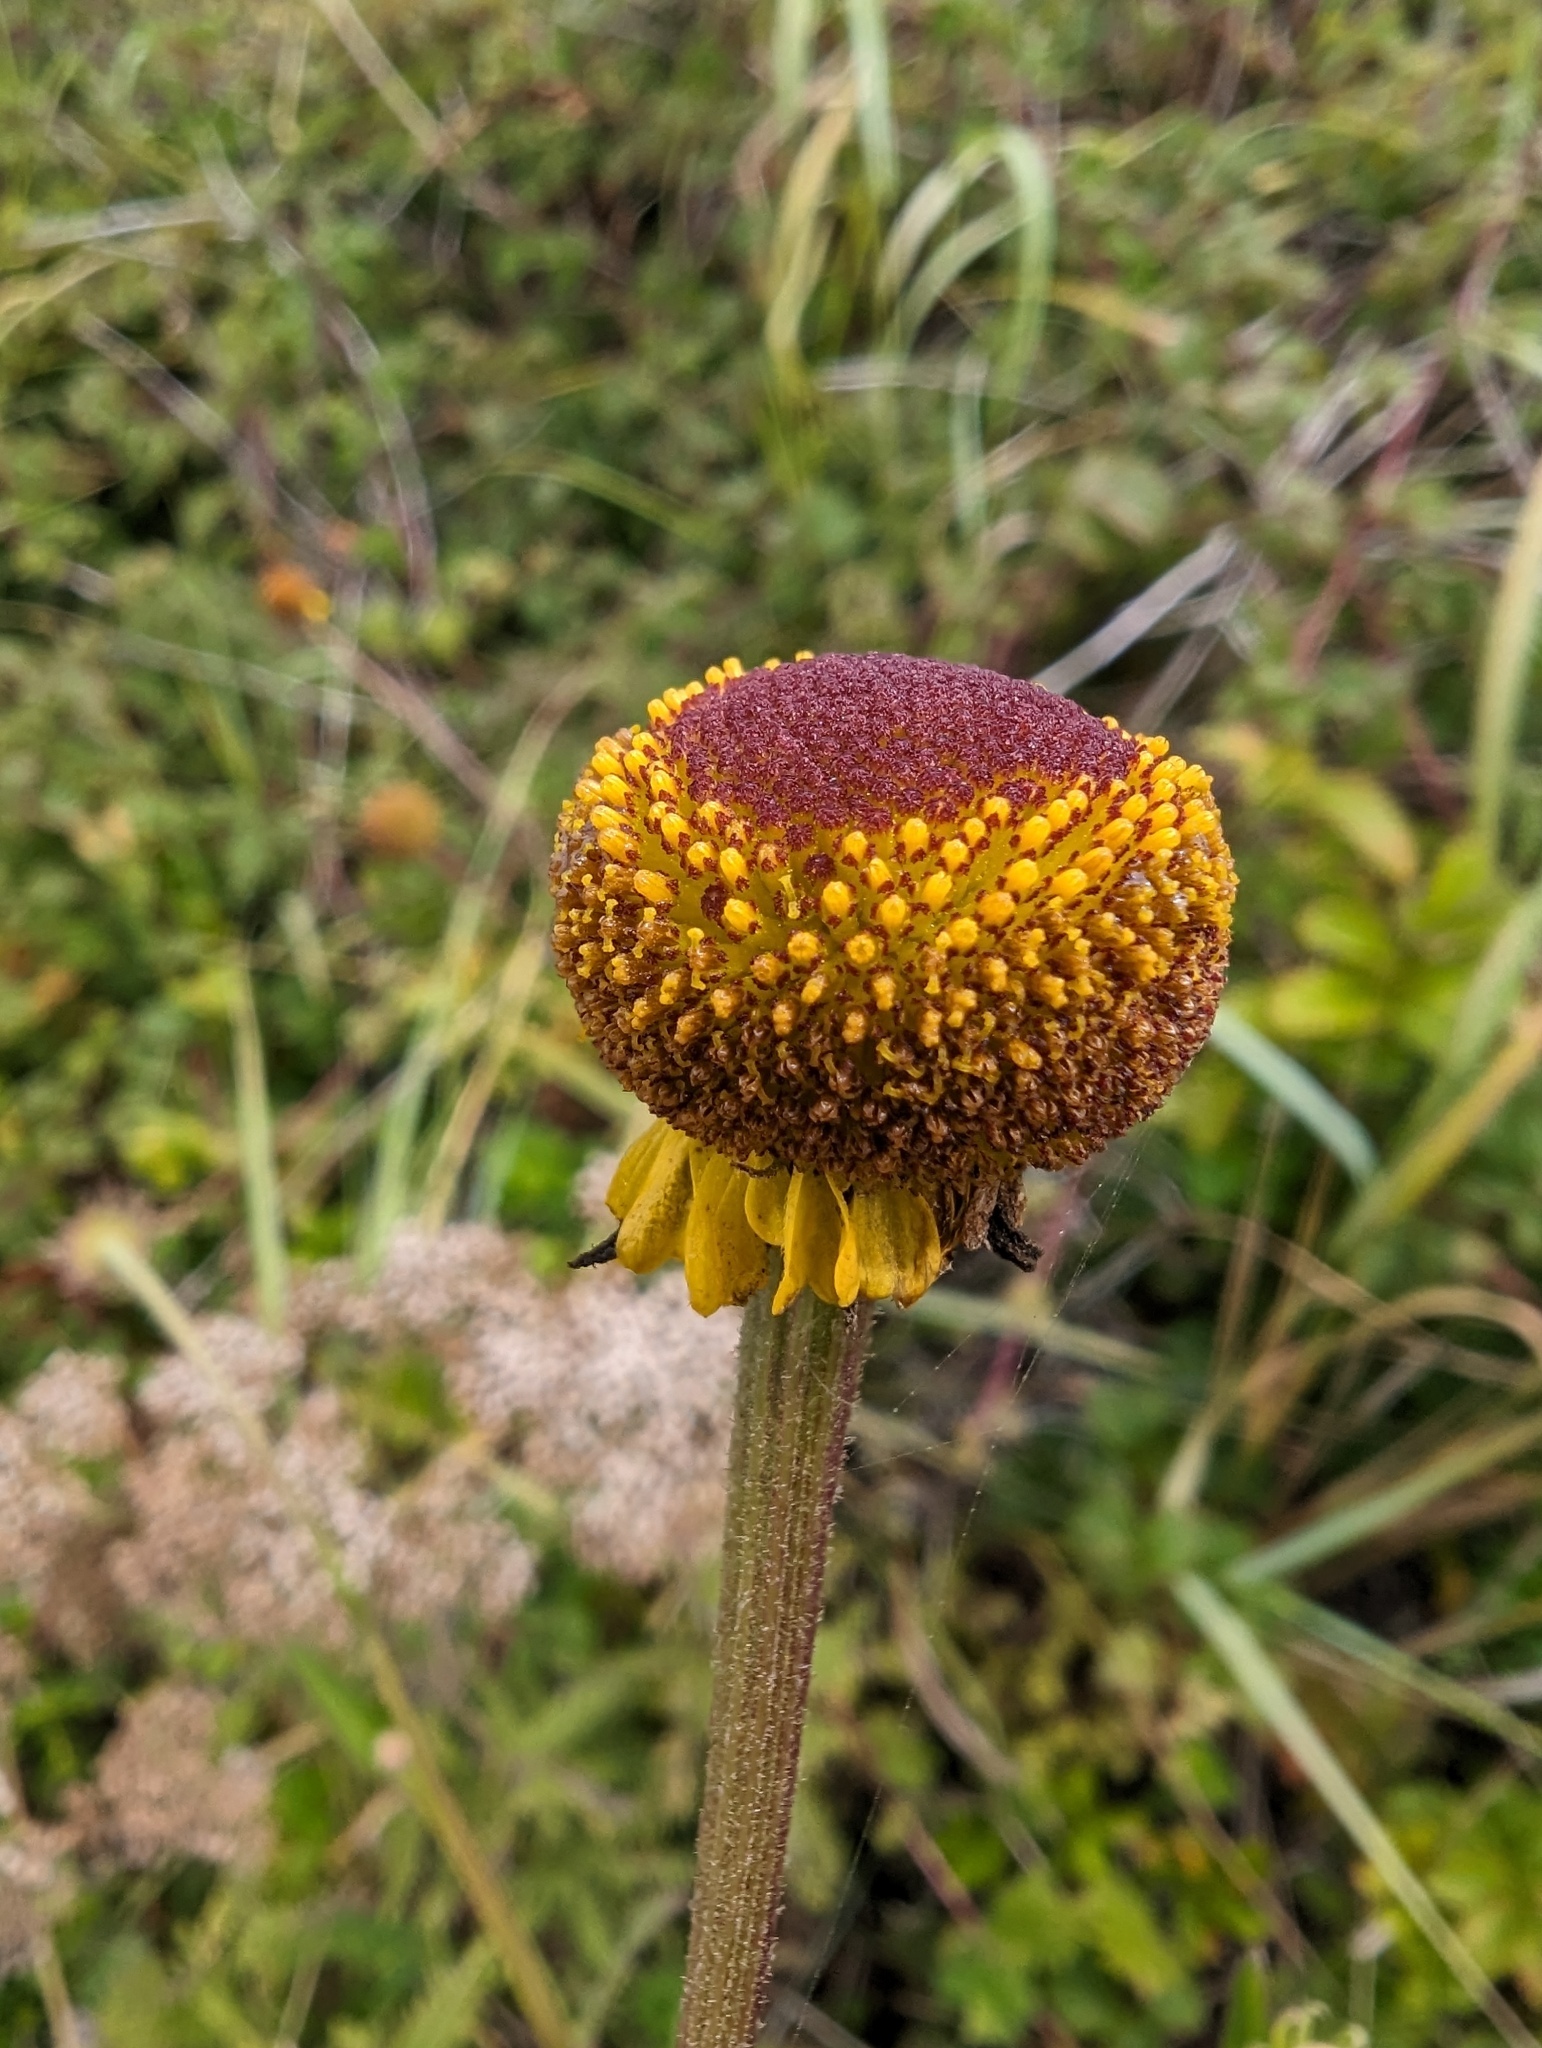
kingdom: Plantae
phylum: Tracheophyta
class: Magnoliopsida
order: Asterales
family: Asteraceae
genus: Helenium
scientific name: Helenium puberulum
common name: Sneezewort
